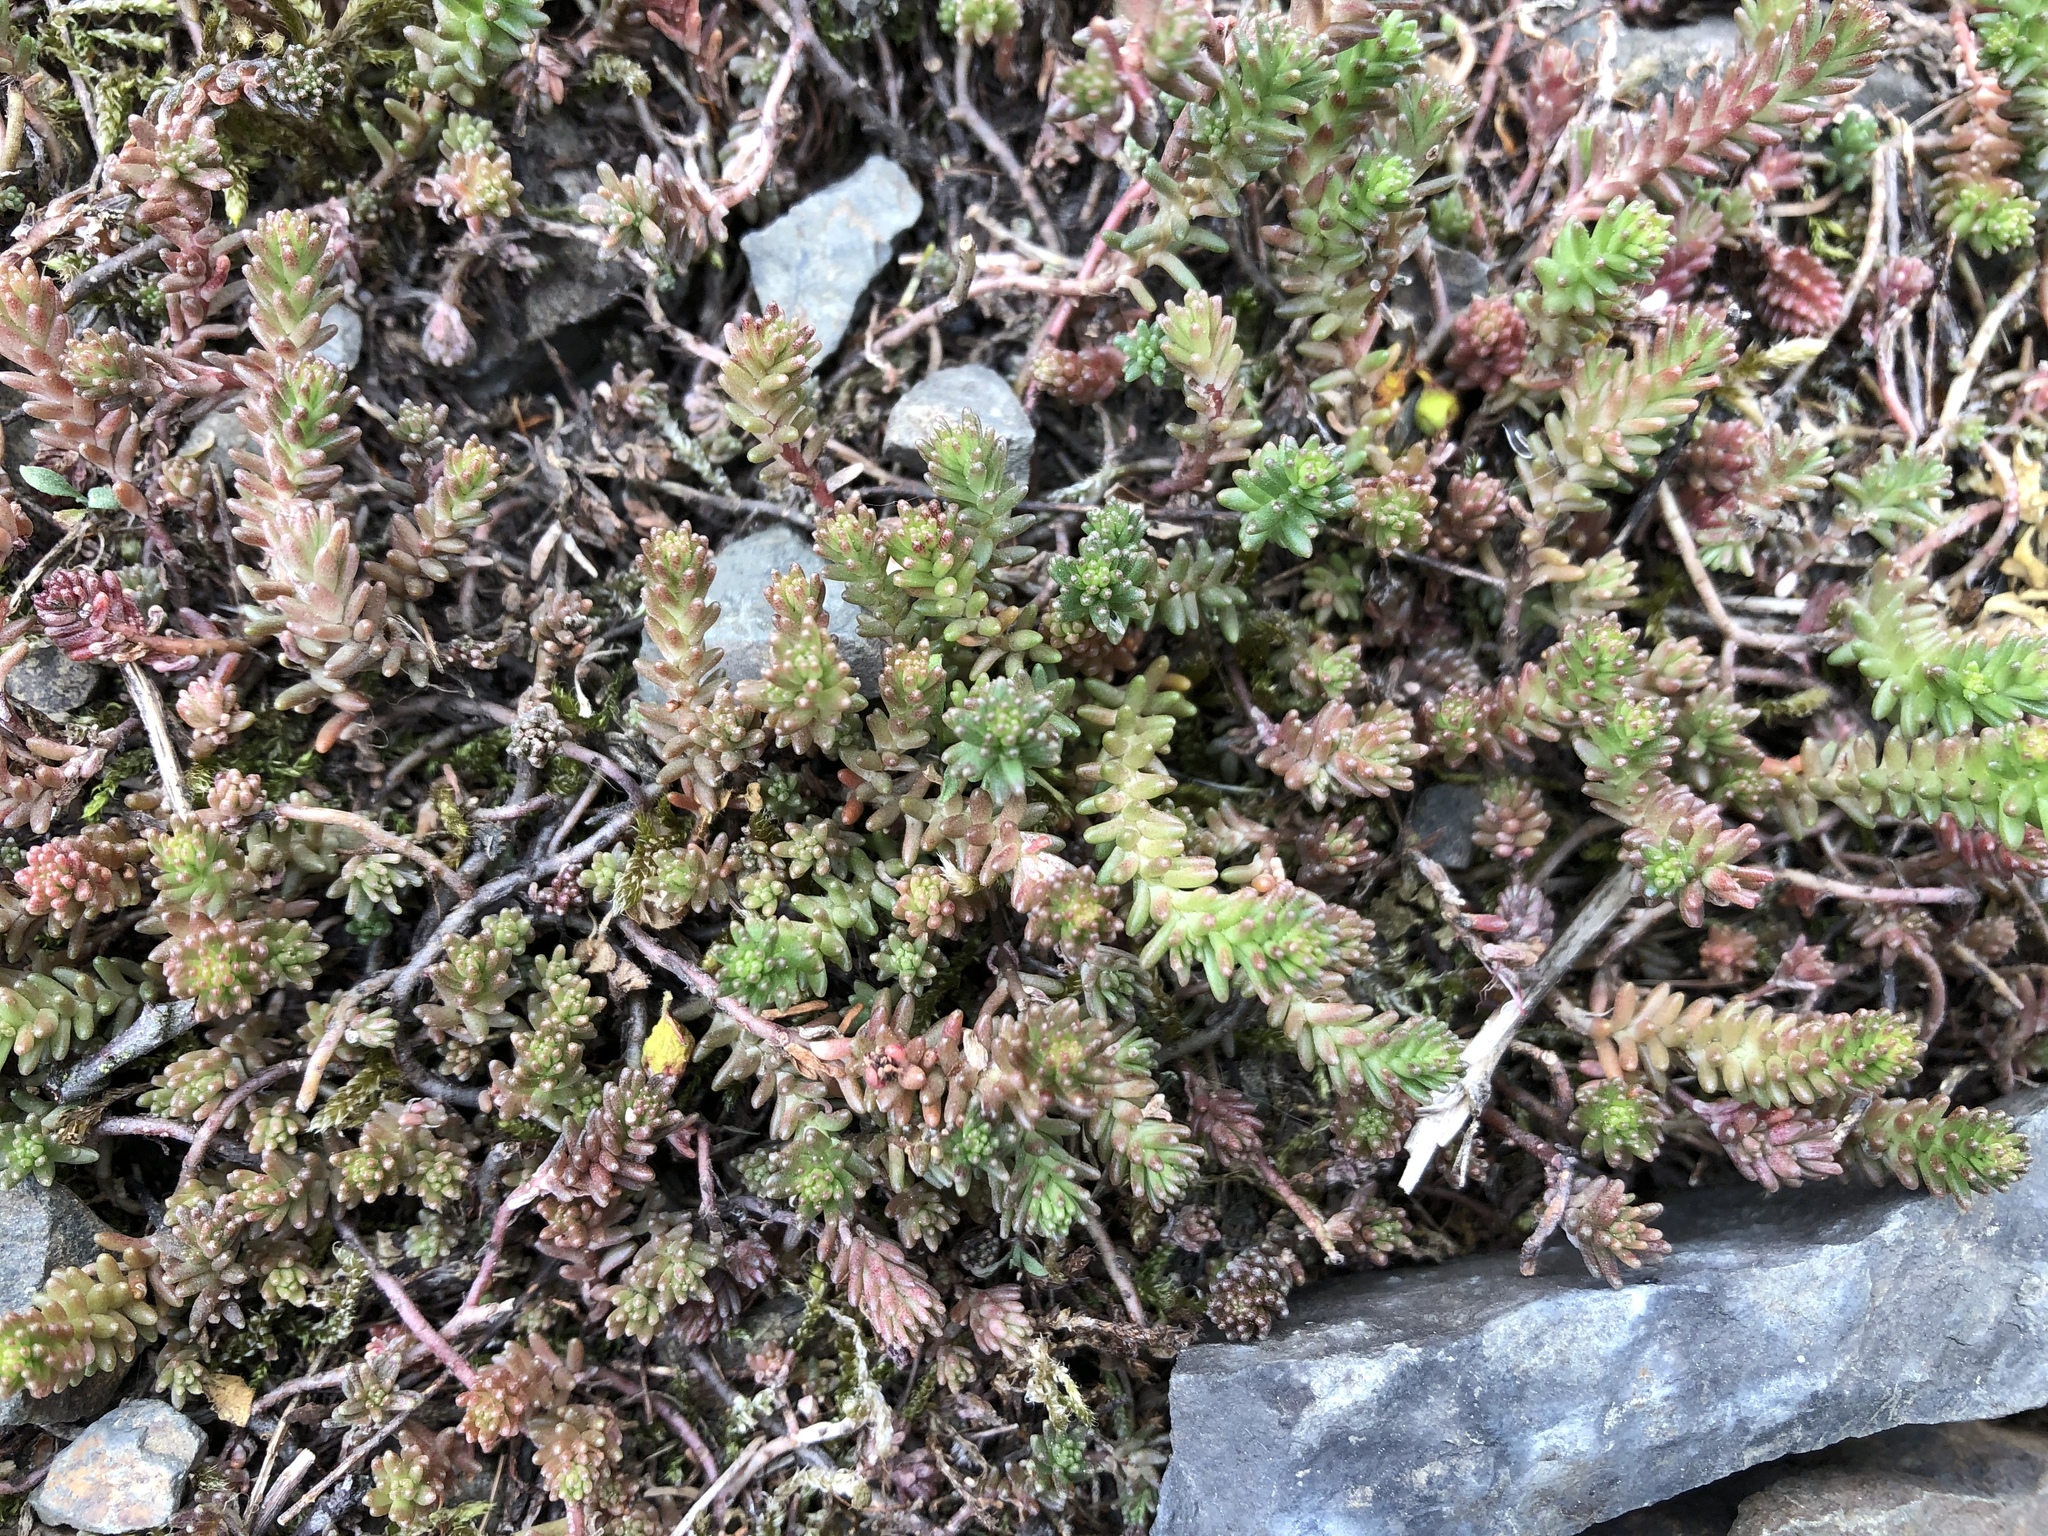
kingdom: Plantae
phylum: Tracheophyta
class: Magnoliopsida
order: Saxifragales
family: Crassulaceae
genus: Sedum
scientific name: Sedum sexangulare
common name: Tasteless stonecrop
